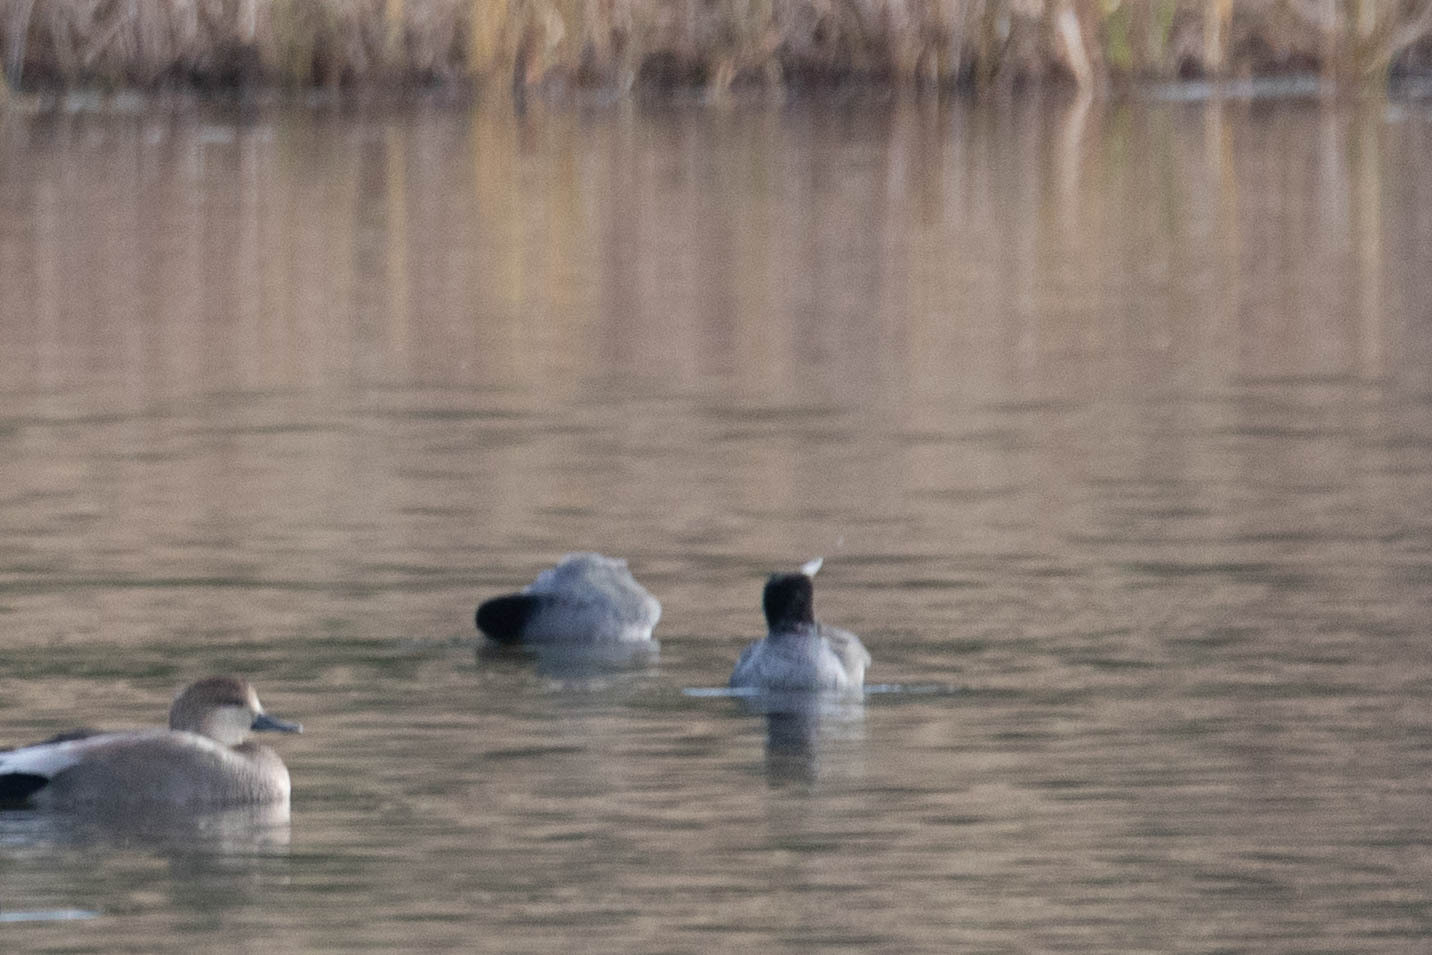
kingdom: Animalia
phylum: Chordata
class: Aves
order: Gruiformes
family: Rallidae
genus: Fulica
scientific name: Fulica americana
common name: American coot
